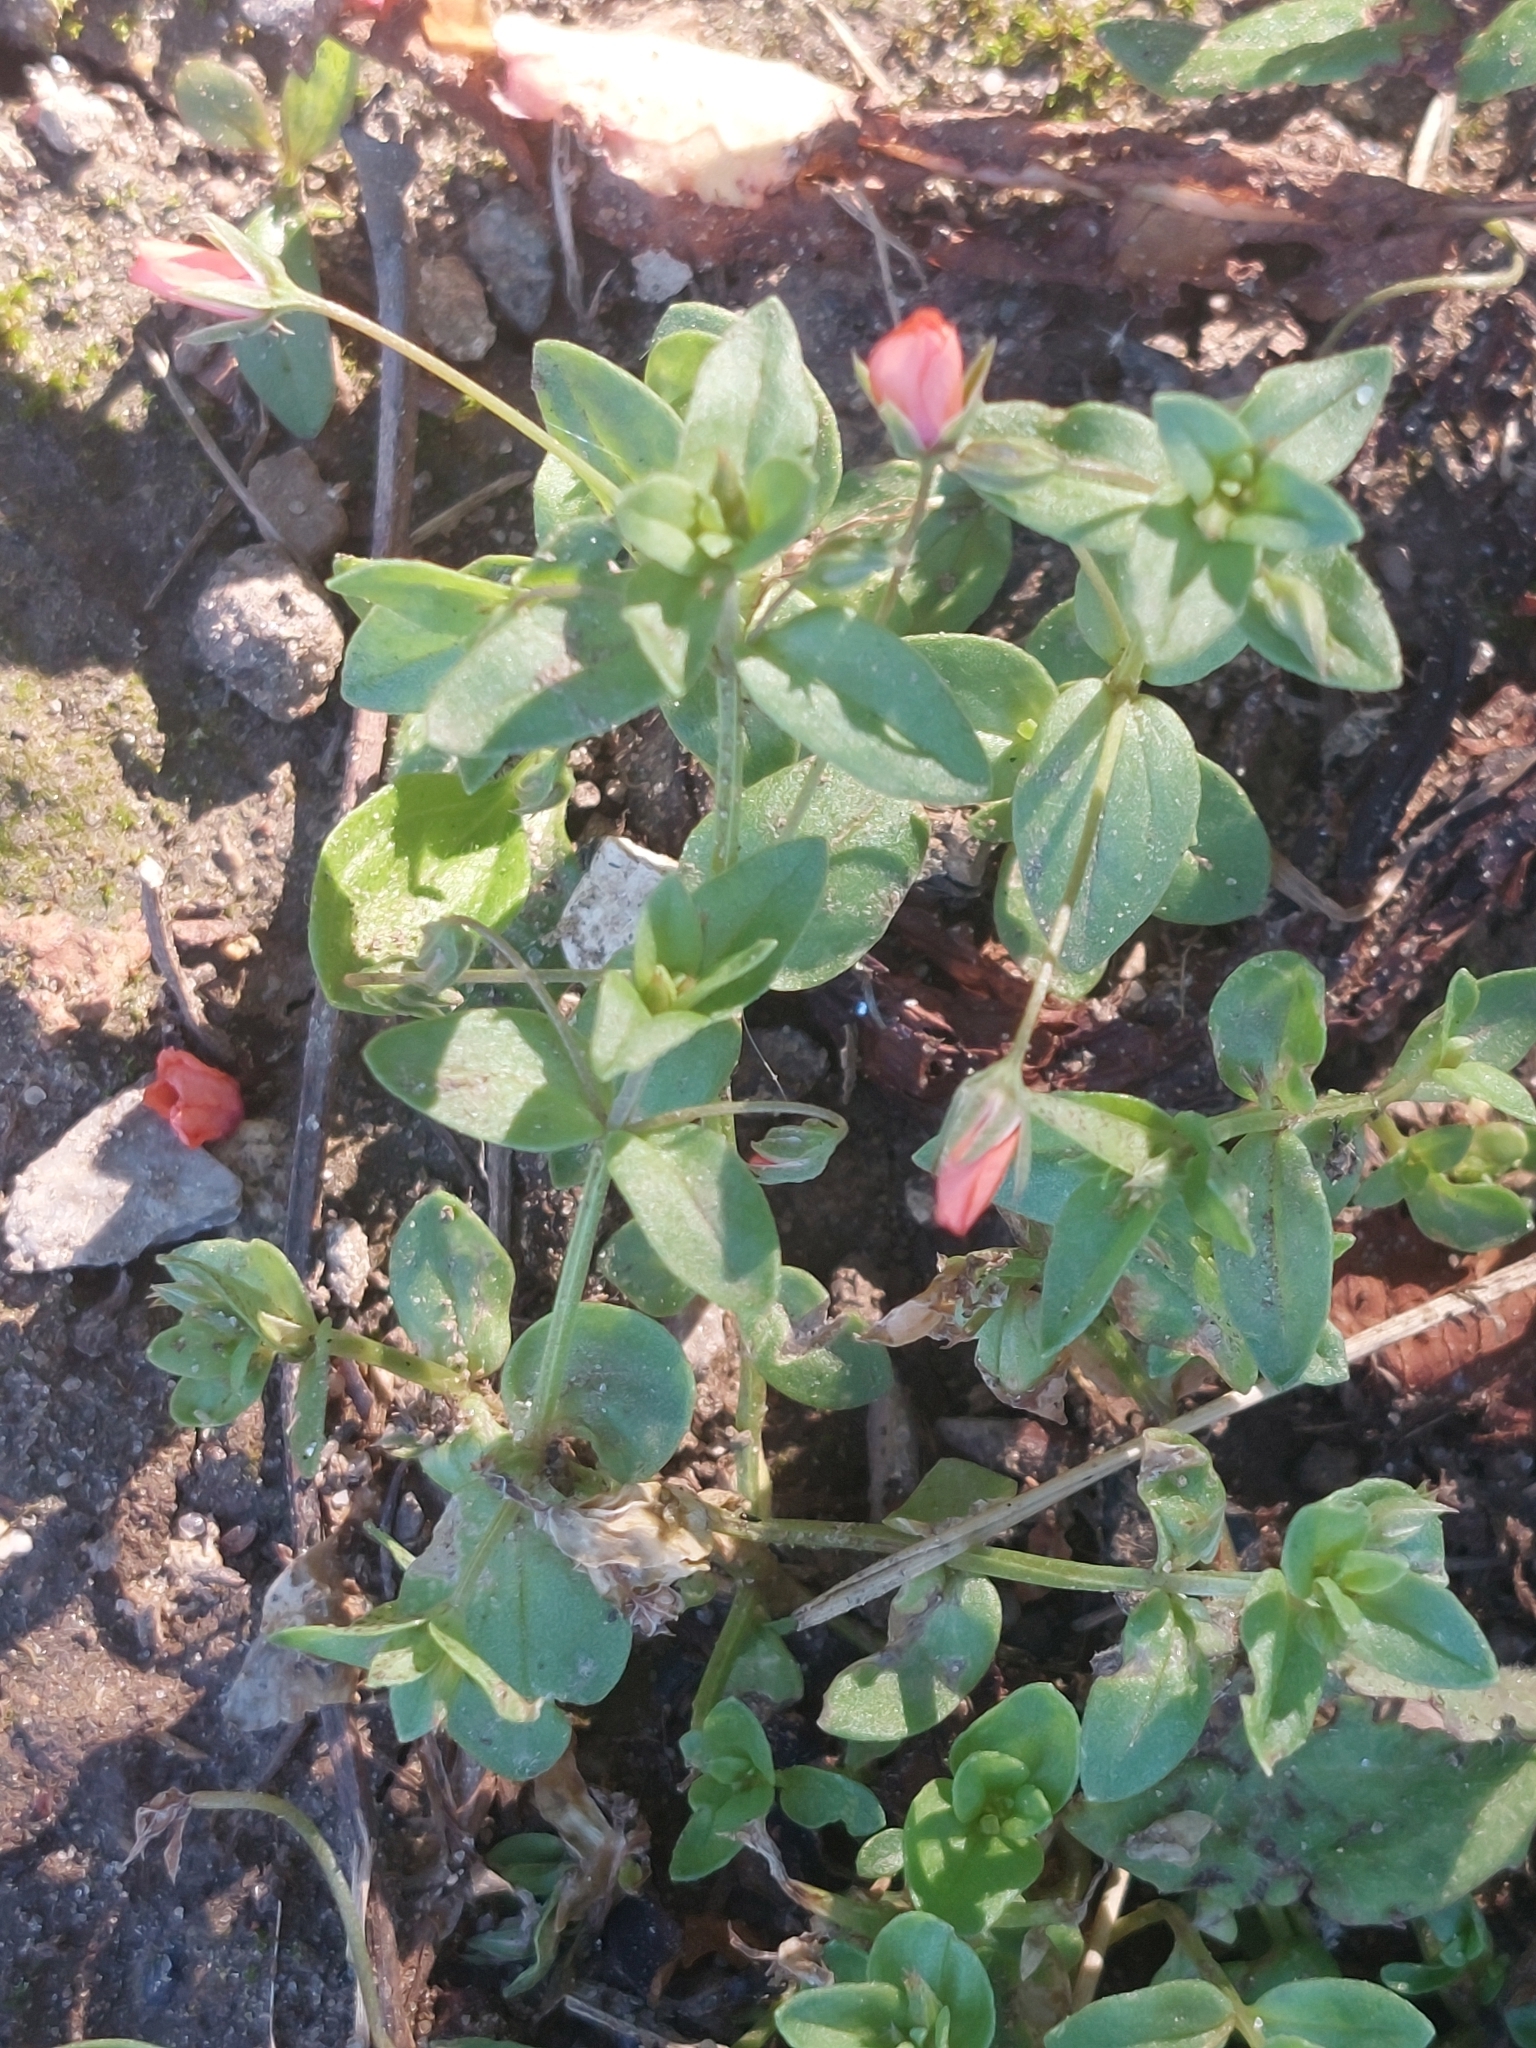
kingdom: Plantae
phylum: Tracheophyta
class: Magnoliopsida
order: Ericales
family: Primulaceae
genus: Lysimachia
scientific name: Lysimachia arvensis
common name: Scarlet pimpernel
